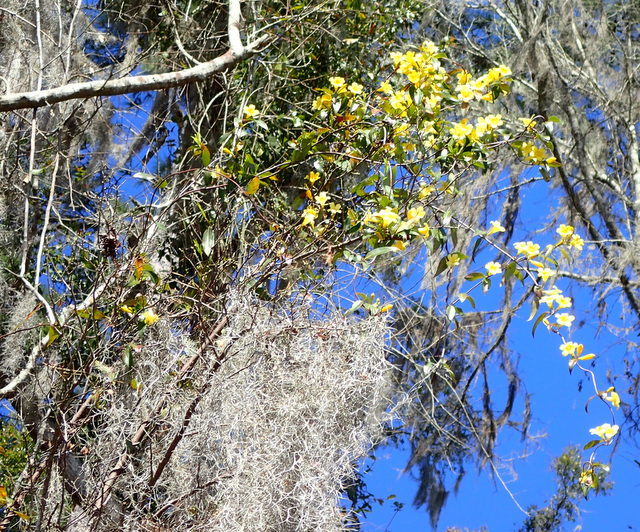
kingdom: Plantae
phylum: Tracheophyta
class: Magnoliopsida
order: Gentianales
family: Gelsemiaceae
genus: Gelsemium
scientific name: Gelsemium sempervirens
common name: Carolina-jasmine
